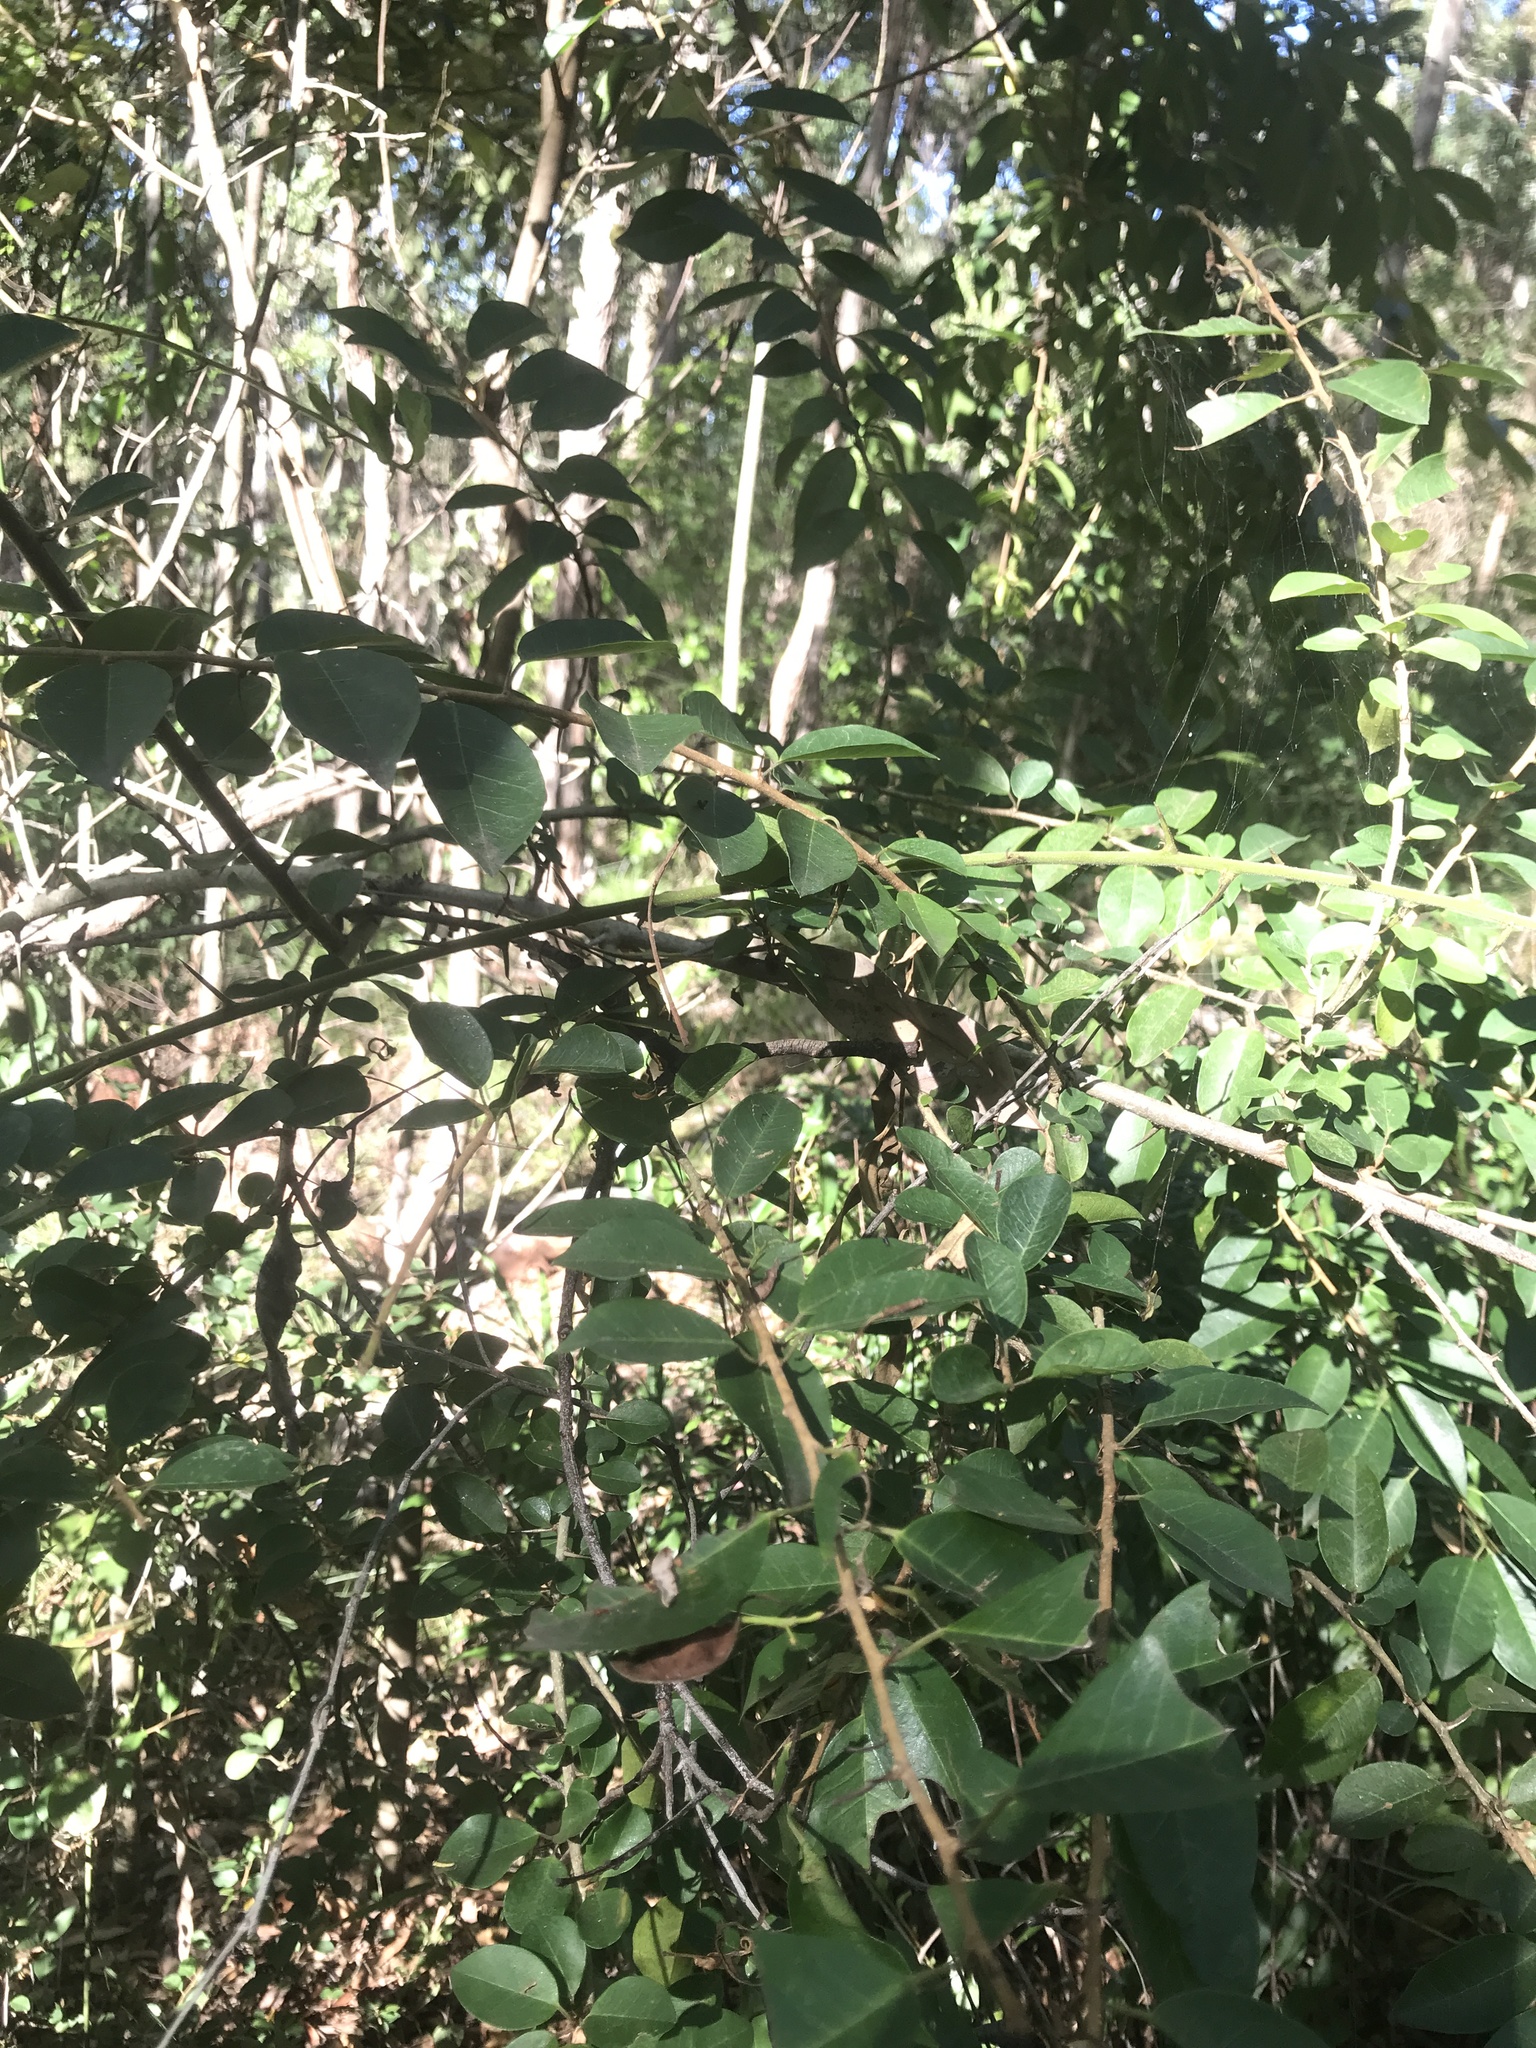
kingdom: Plantae
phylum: Tracheophyta
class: Magnoliopsida
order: Rosales
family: Moraceae
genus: Maclura
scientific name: Maclura cochinchinensis
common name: Cockspurthorn
